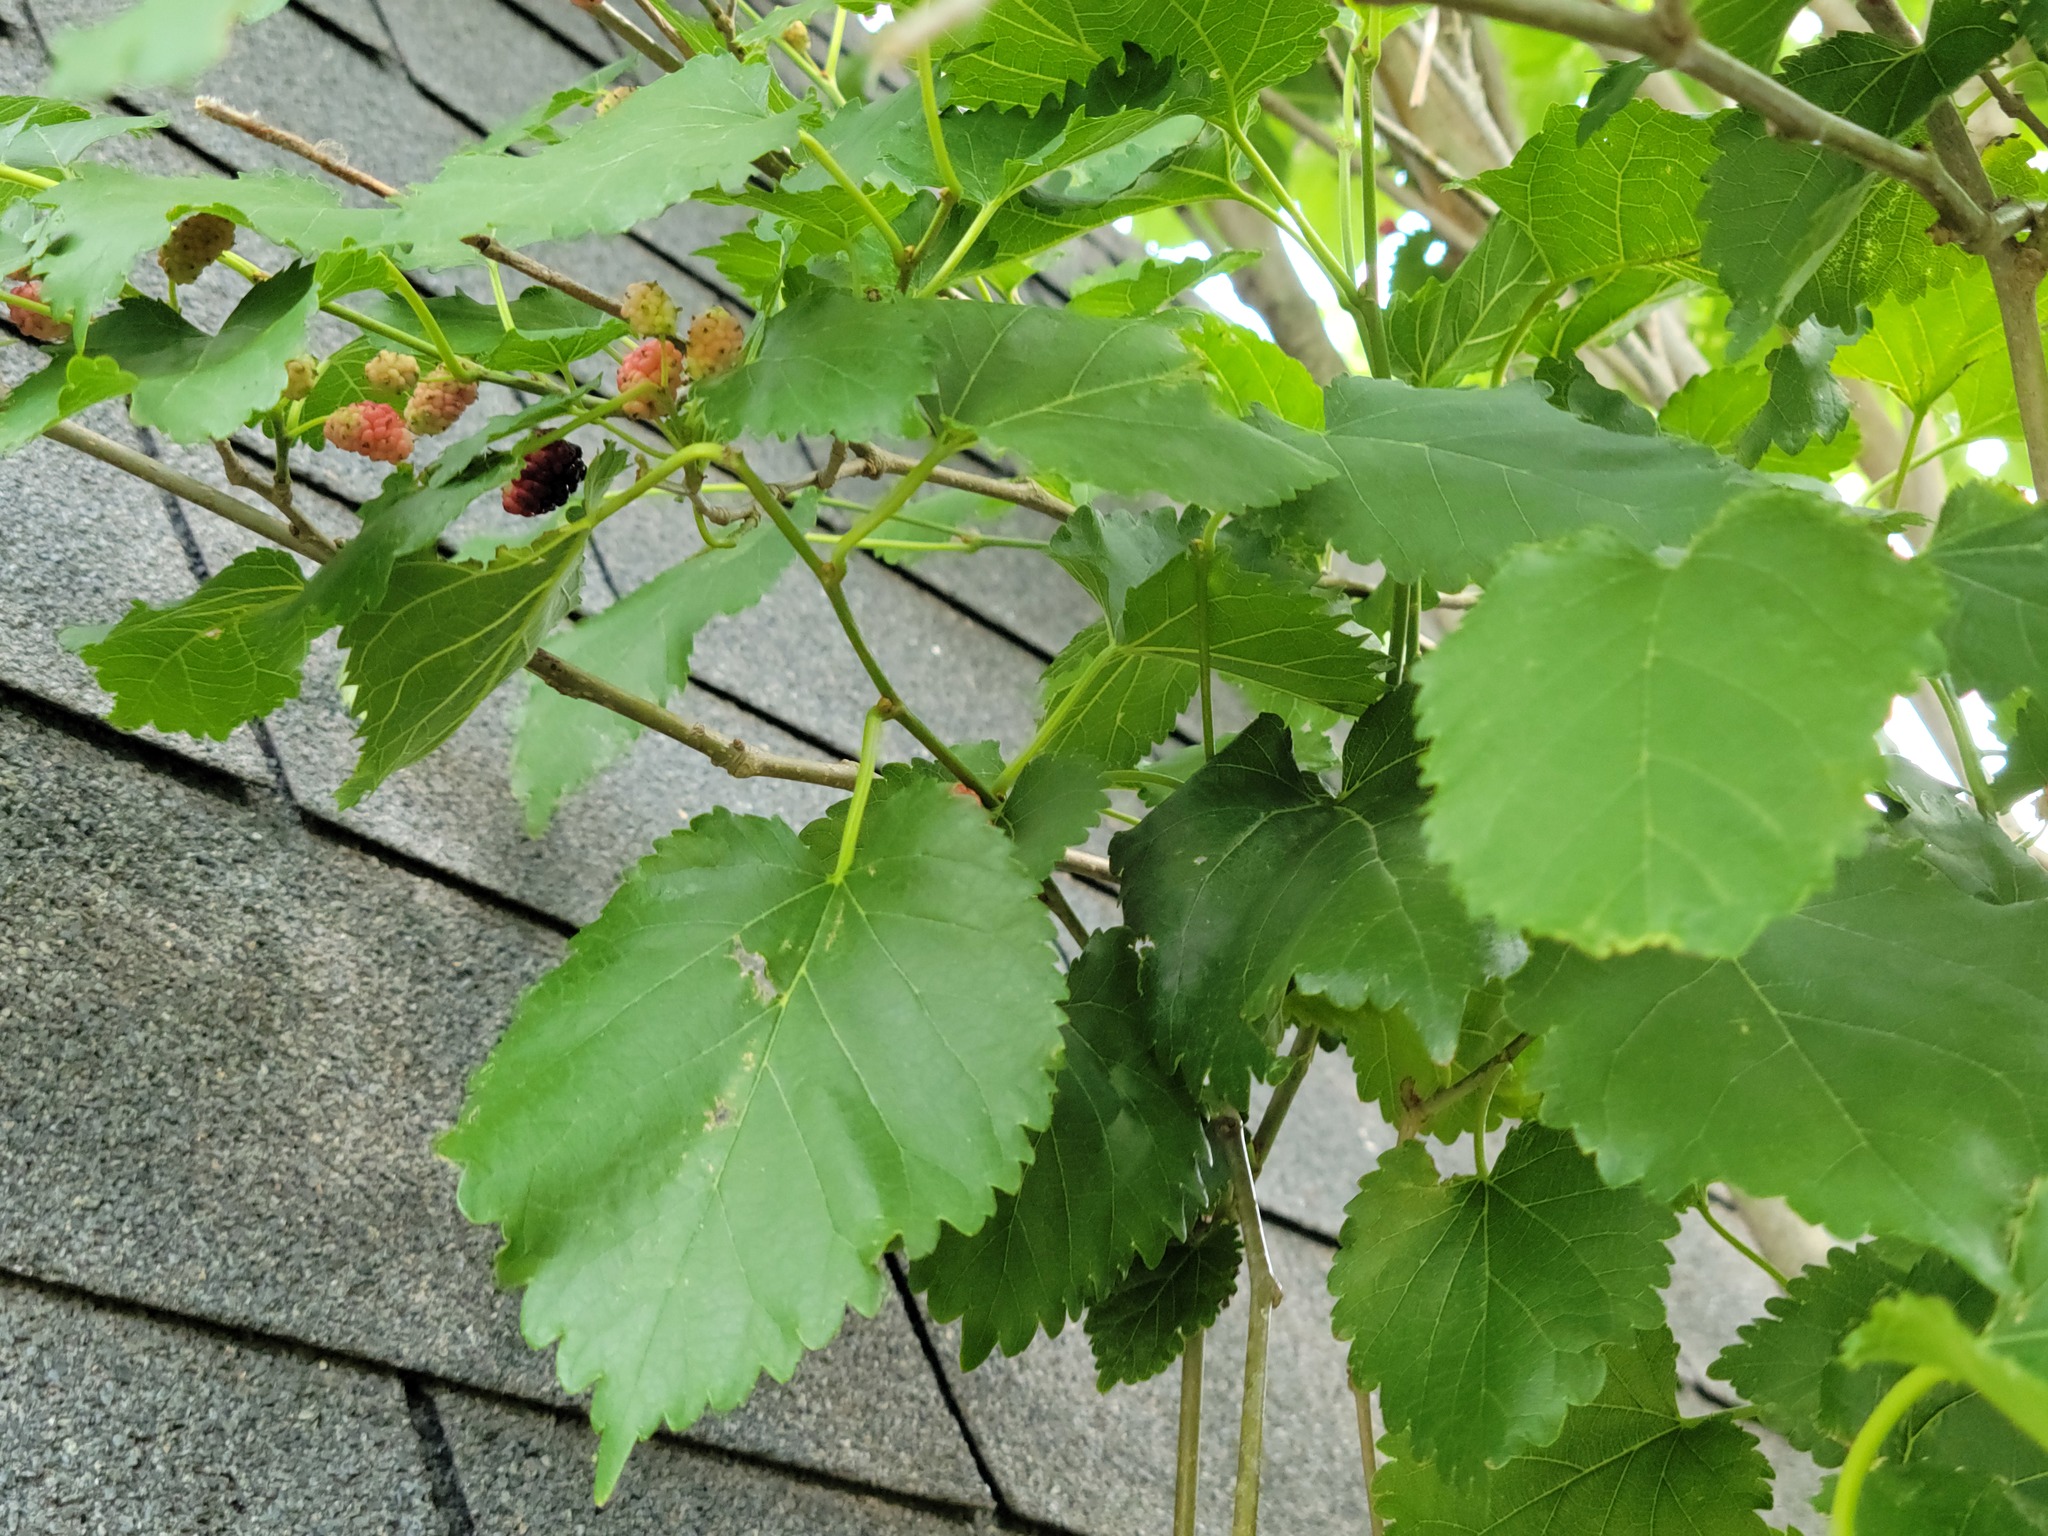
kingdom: Plantae
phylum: Tracheophyta
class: Magnoliopsida
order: Rosales
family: Moraceae
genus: Morus
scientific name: Morus alba
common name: White mulberry
